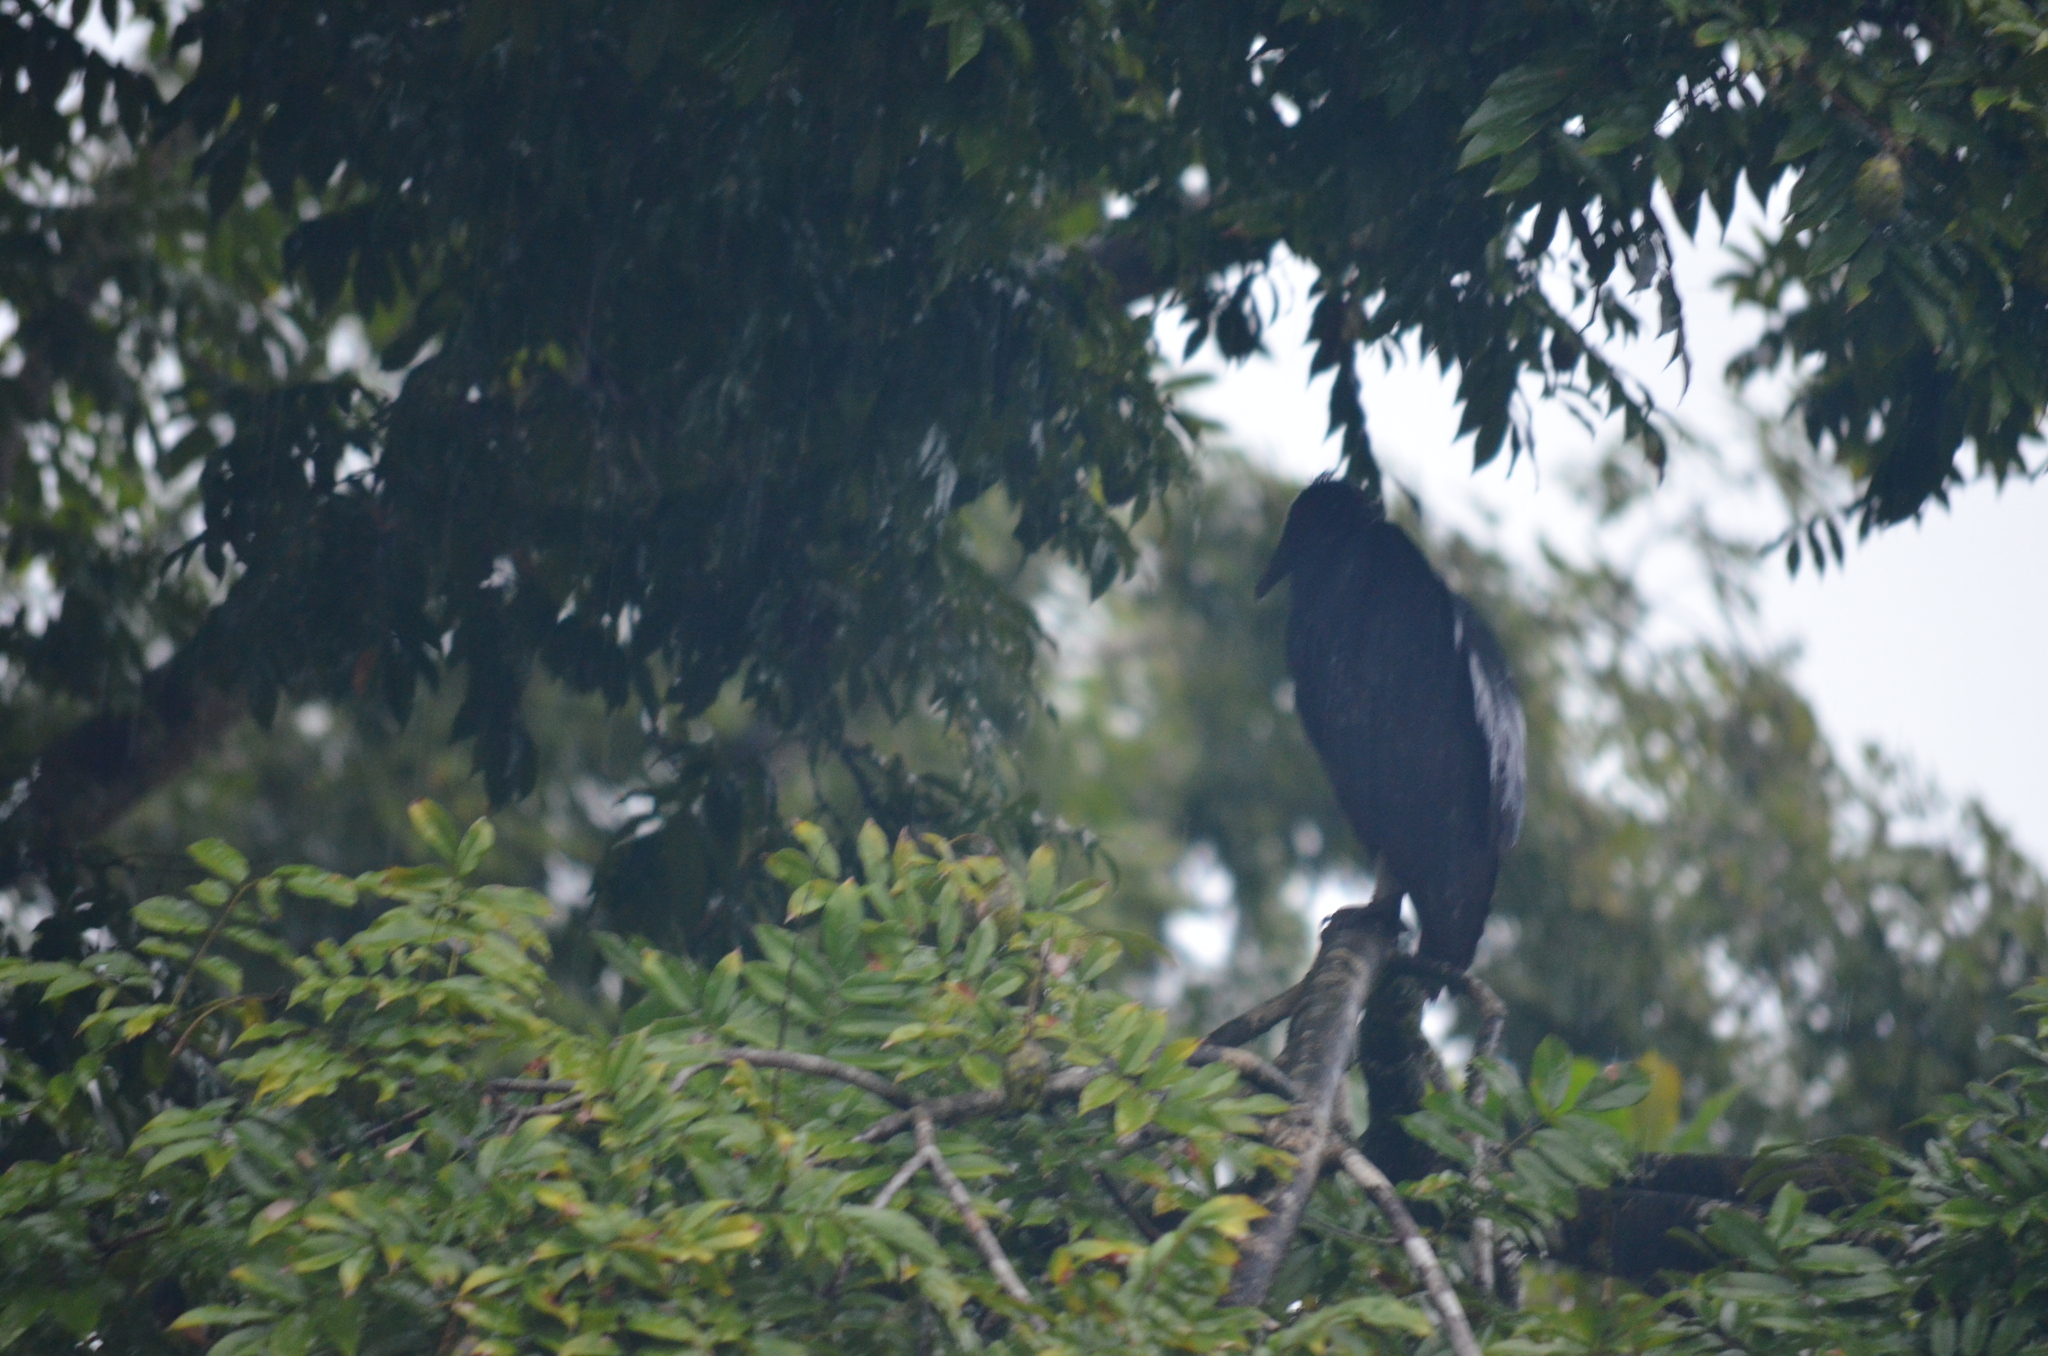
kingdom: Animalia
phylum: Chordata
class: Aves
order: Accipitriformes
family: Cathartidae
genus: Coragyps
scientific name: Coragyps atratus
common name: Black vulture
